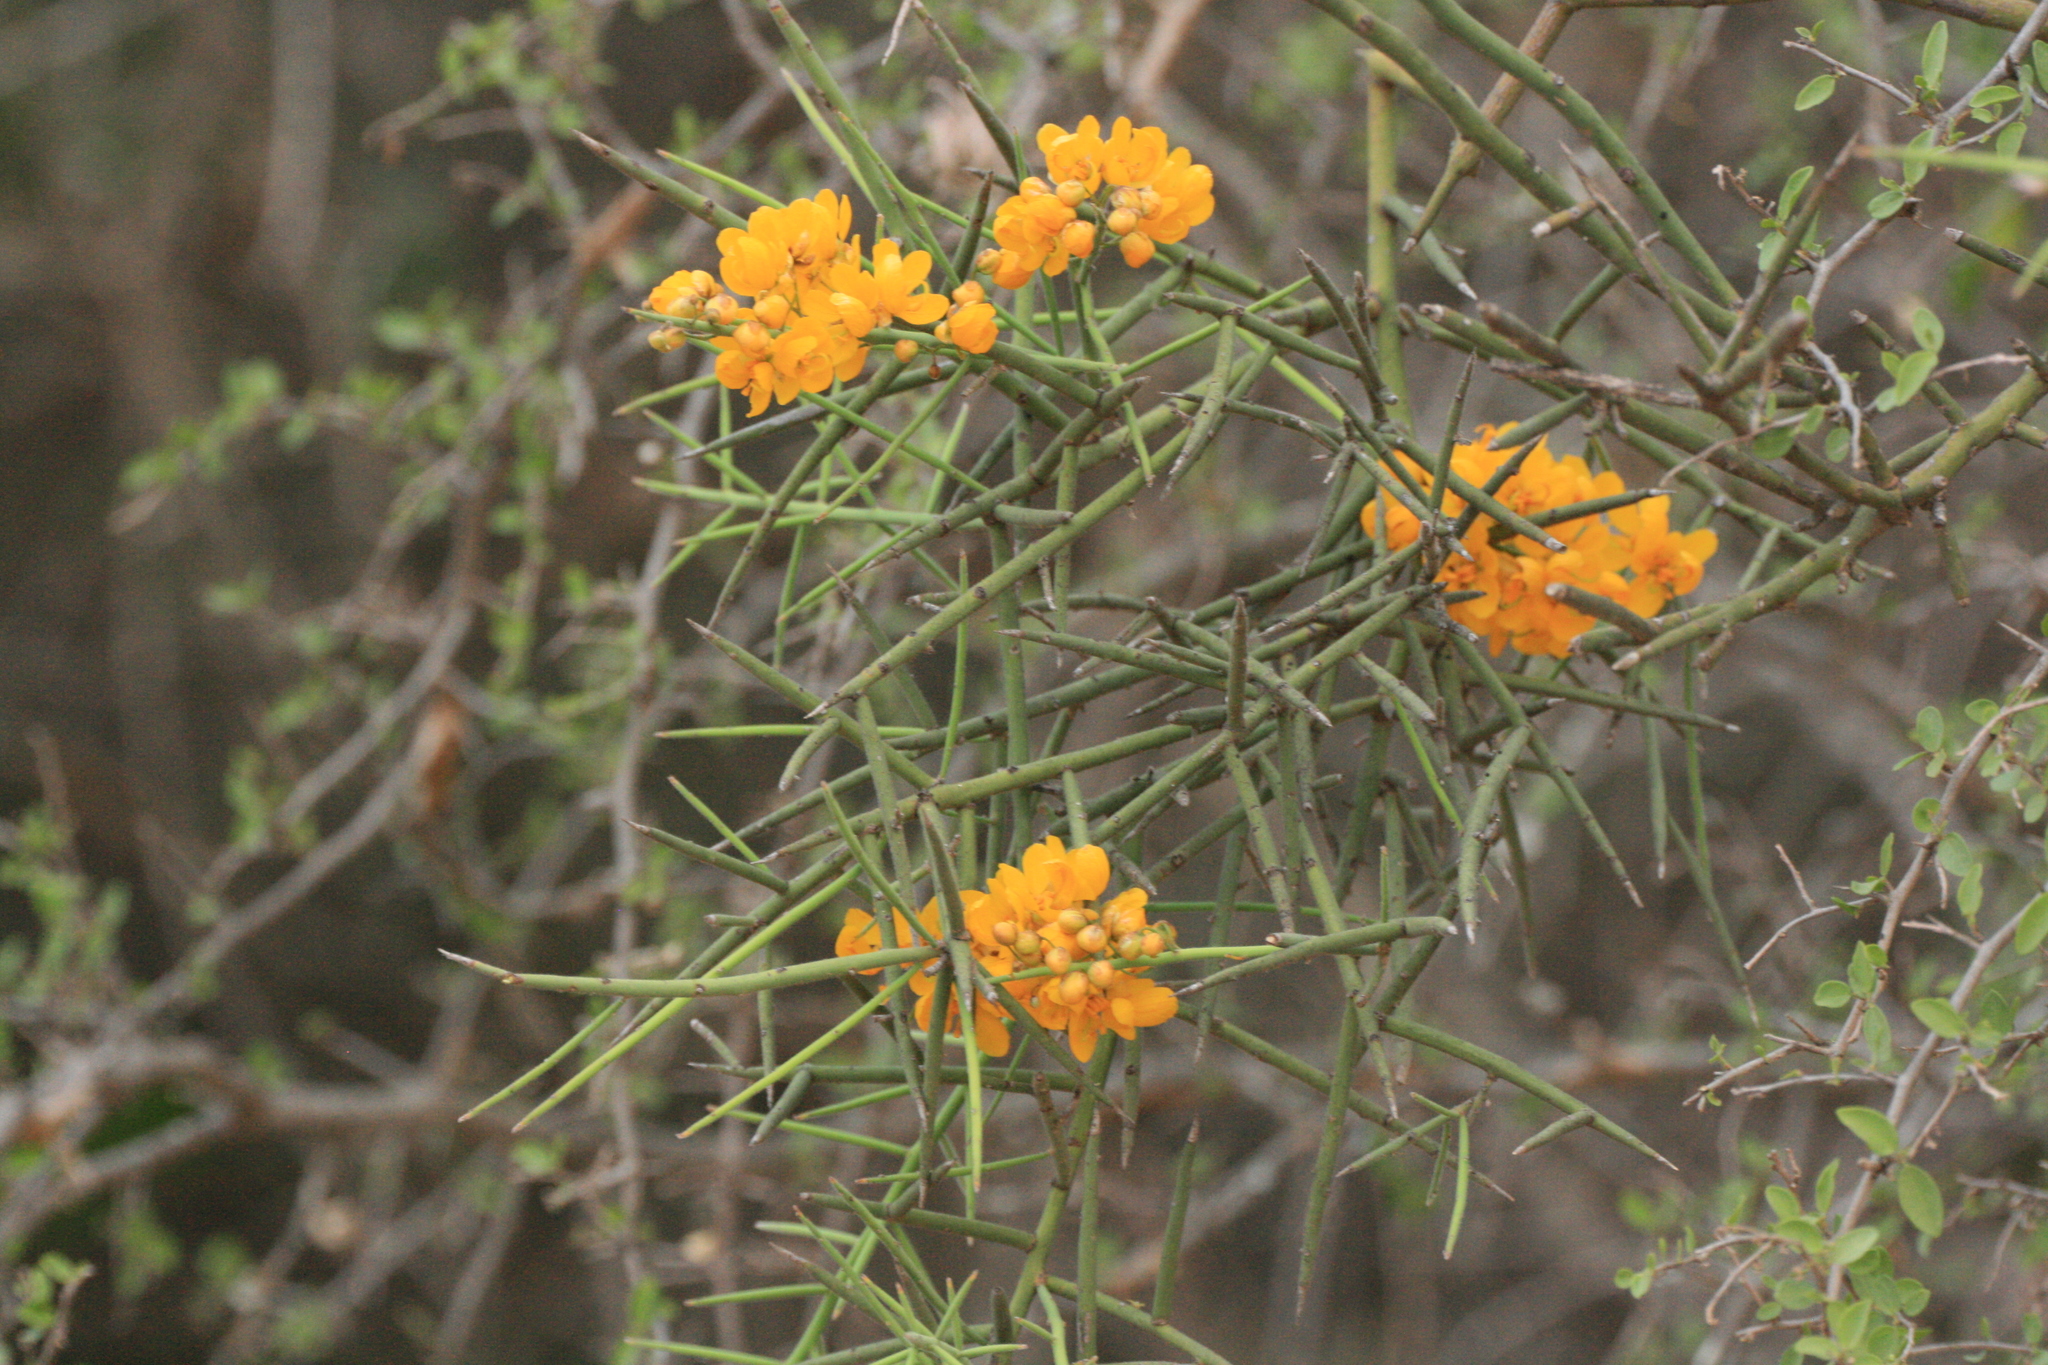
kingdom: Plantae
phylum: Tracheophyta
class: Magnoliopsida
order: Fabales
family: Fabaceae
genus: Senna
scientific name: Senna spiniflora
